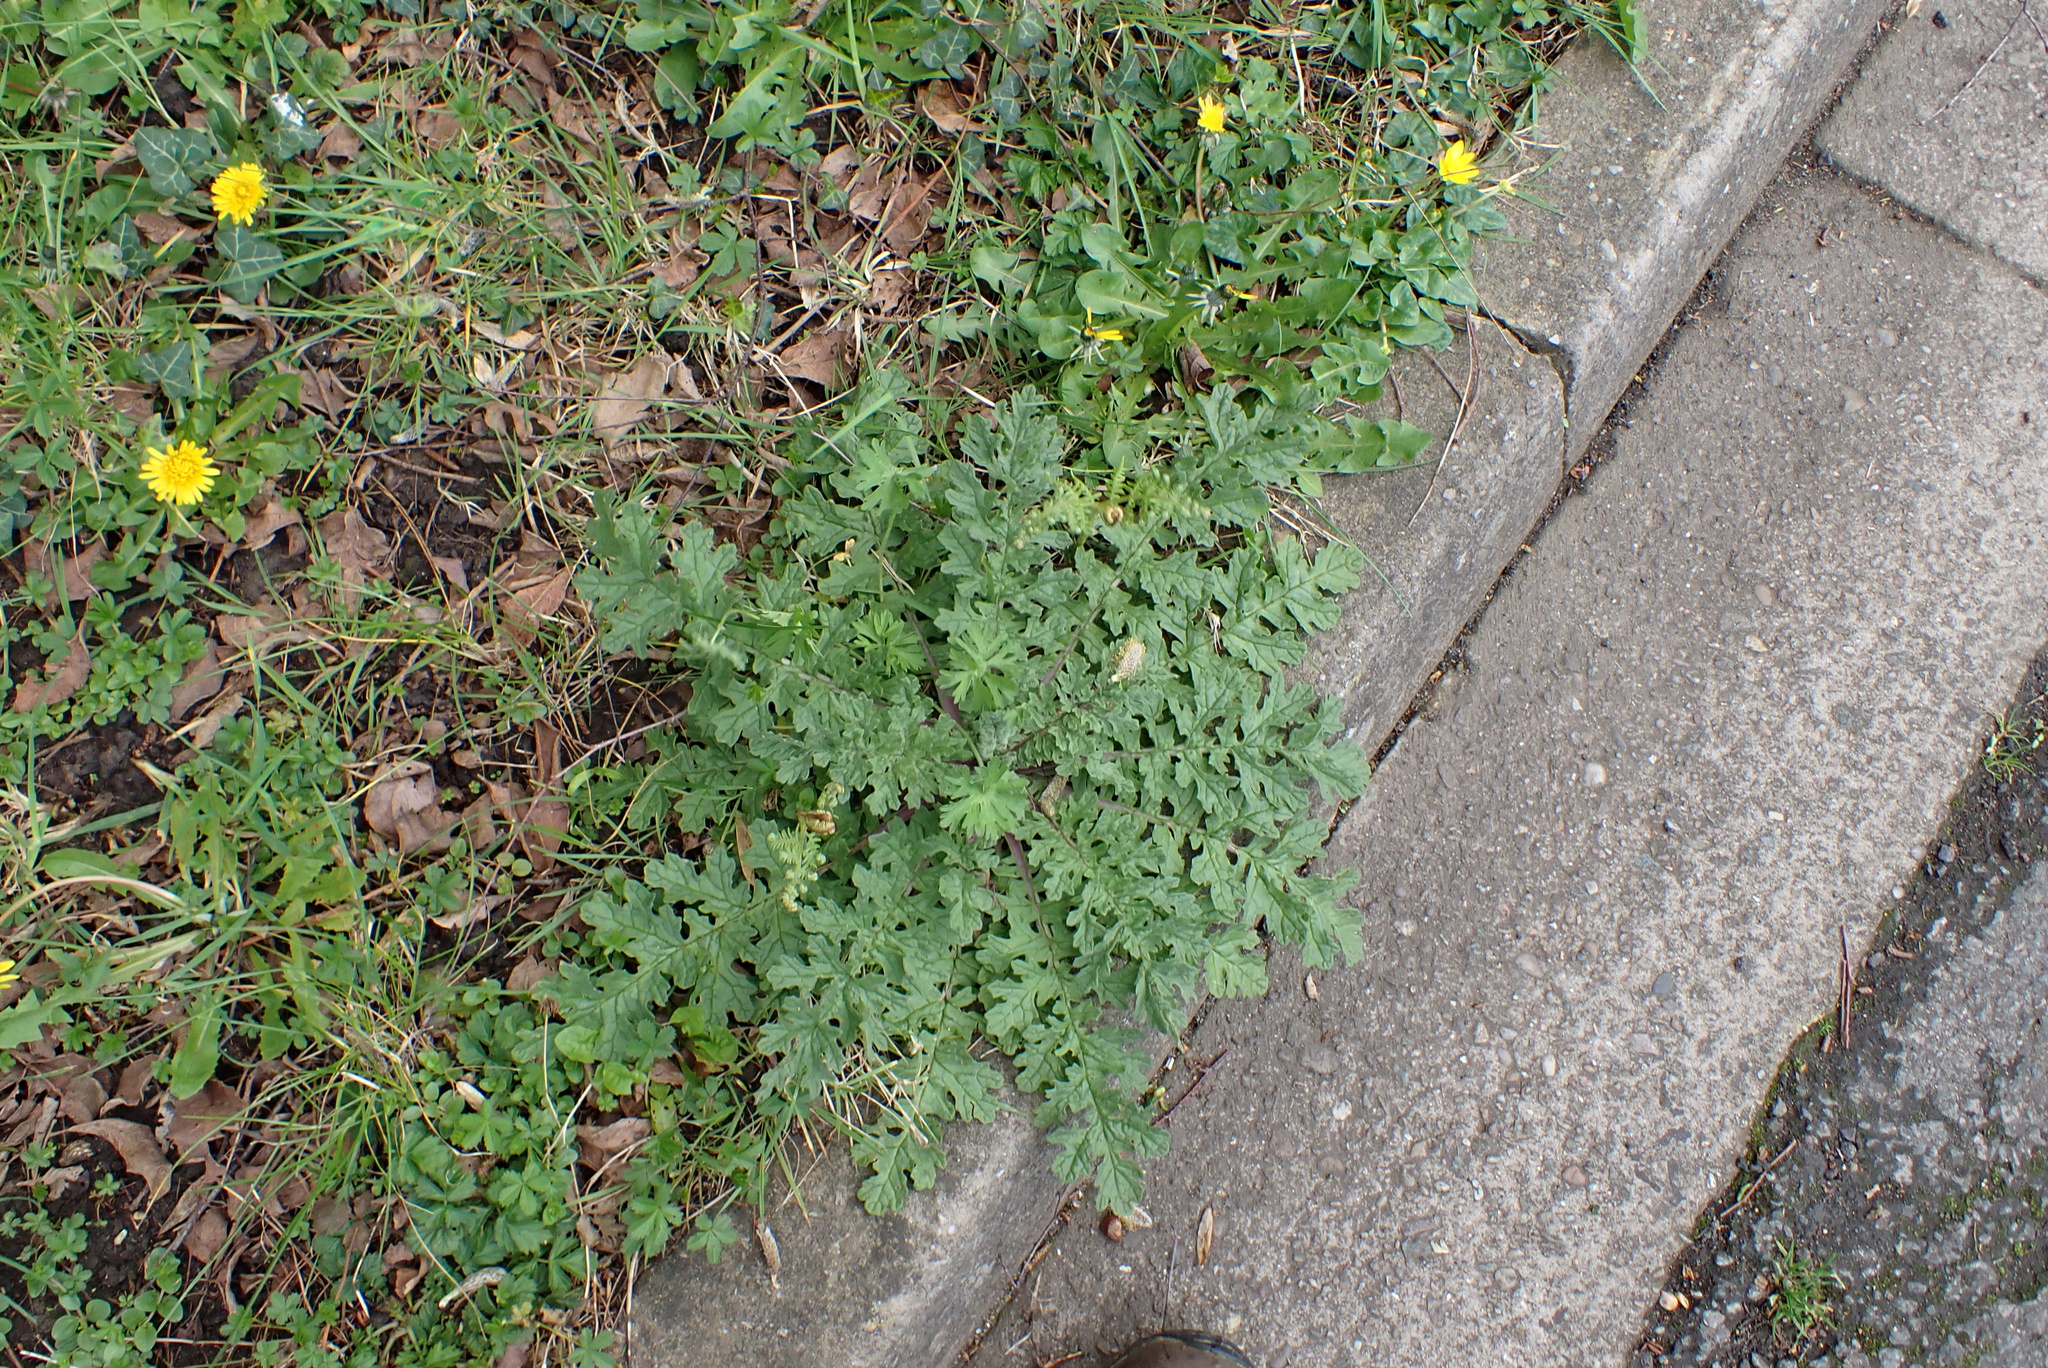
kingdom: Plantae
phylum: Tracheophyta
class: Magnoliopsida
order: Asterales
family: Asteraceae
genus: Jacobaea
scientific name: Jacobaea vulgaris
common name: Stinking willie
